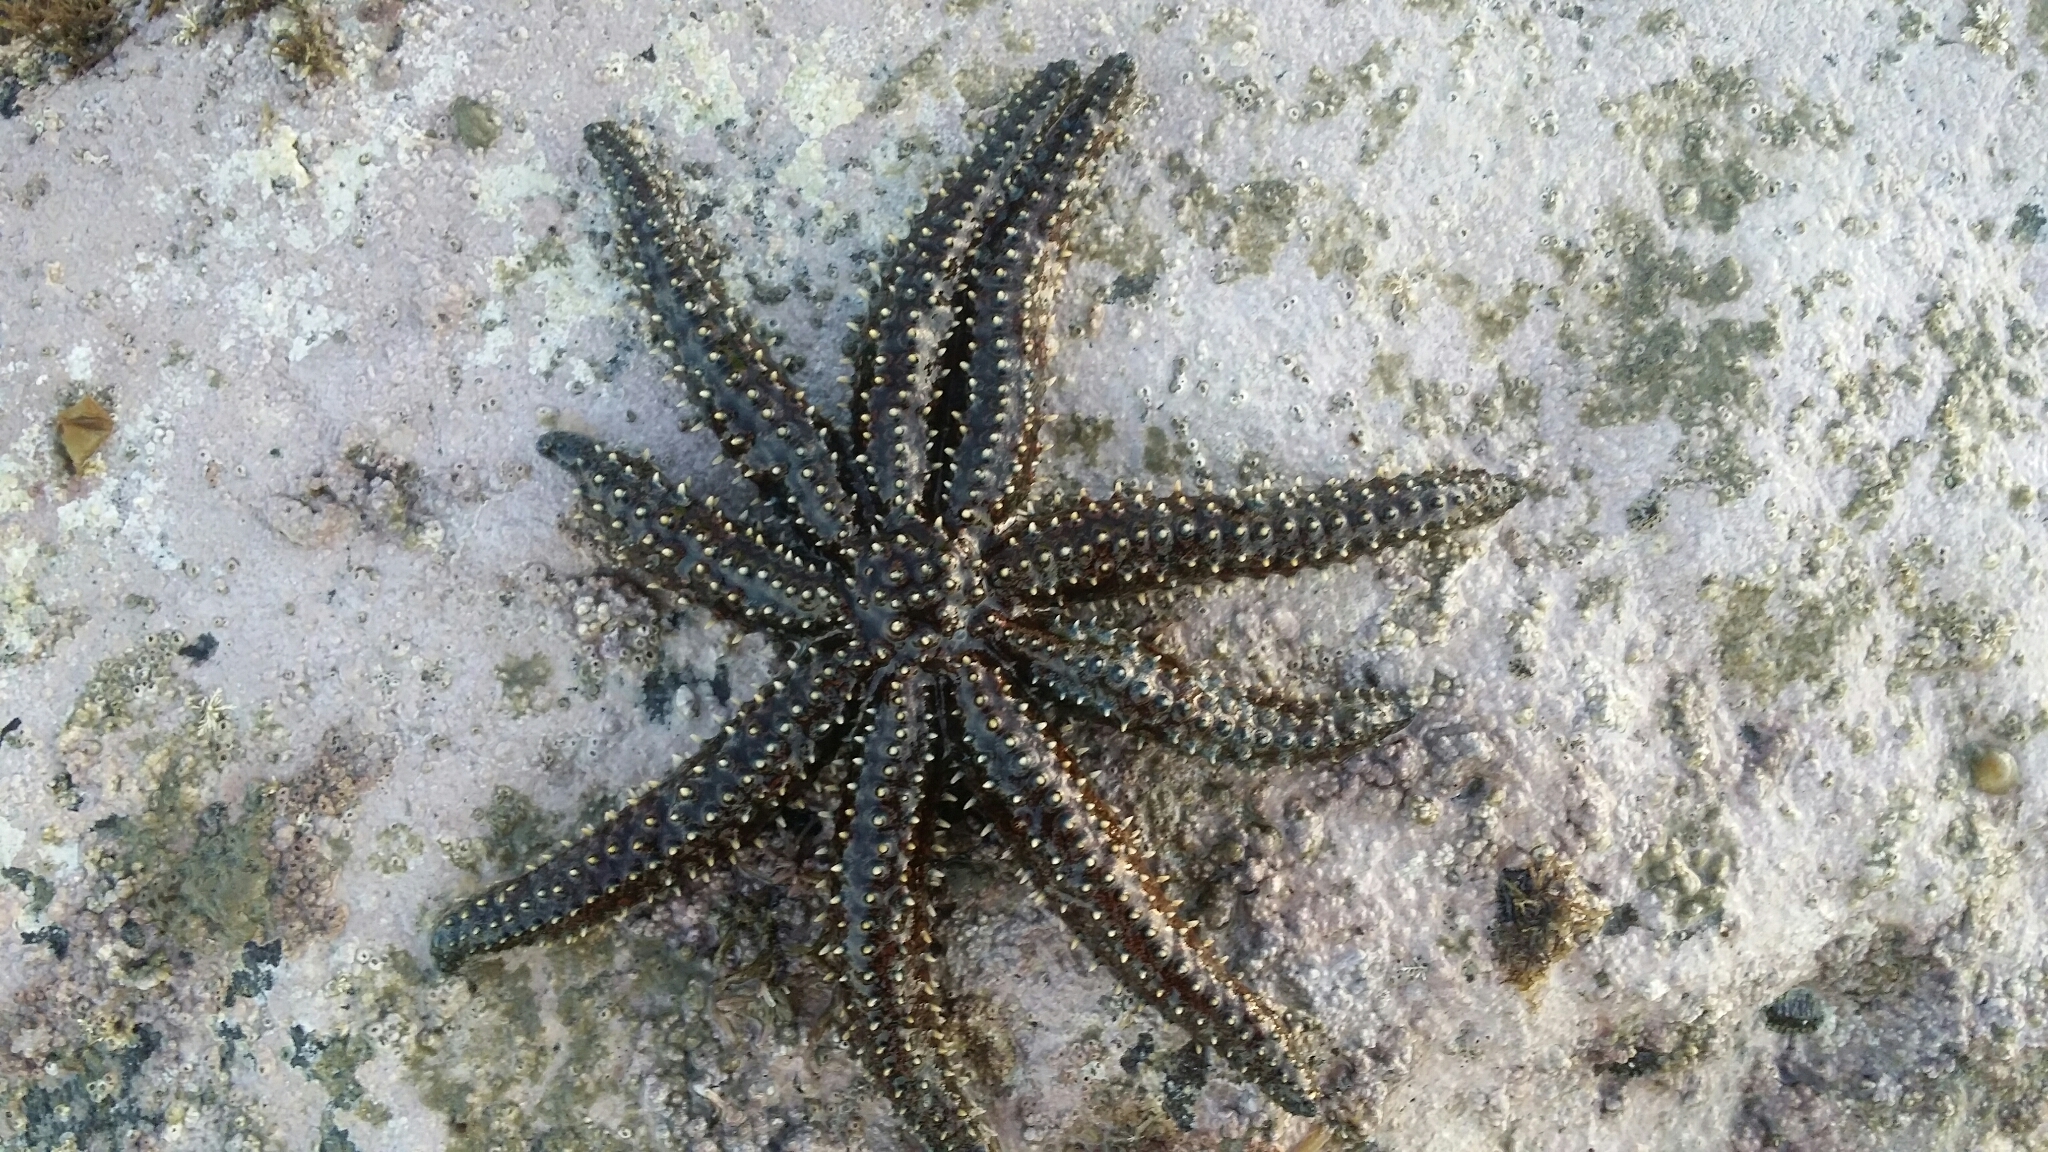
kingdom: Animalia
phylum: Echinodermata
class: Asteroidea
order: Forcipulatida
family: Asteriidae
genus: Coscinasterias
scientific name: Coscinasterias muricata
